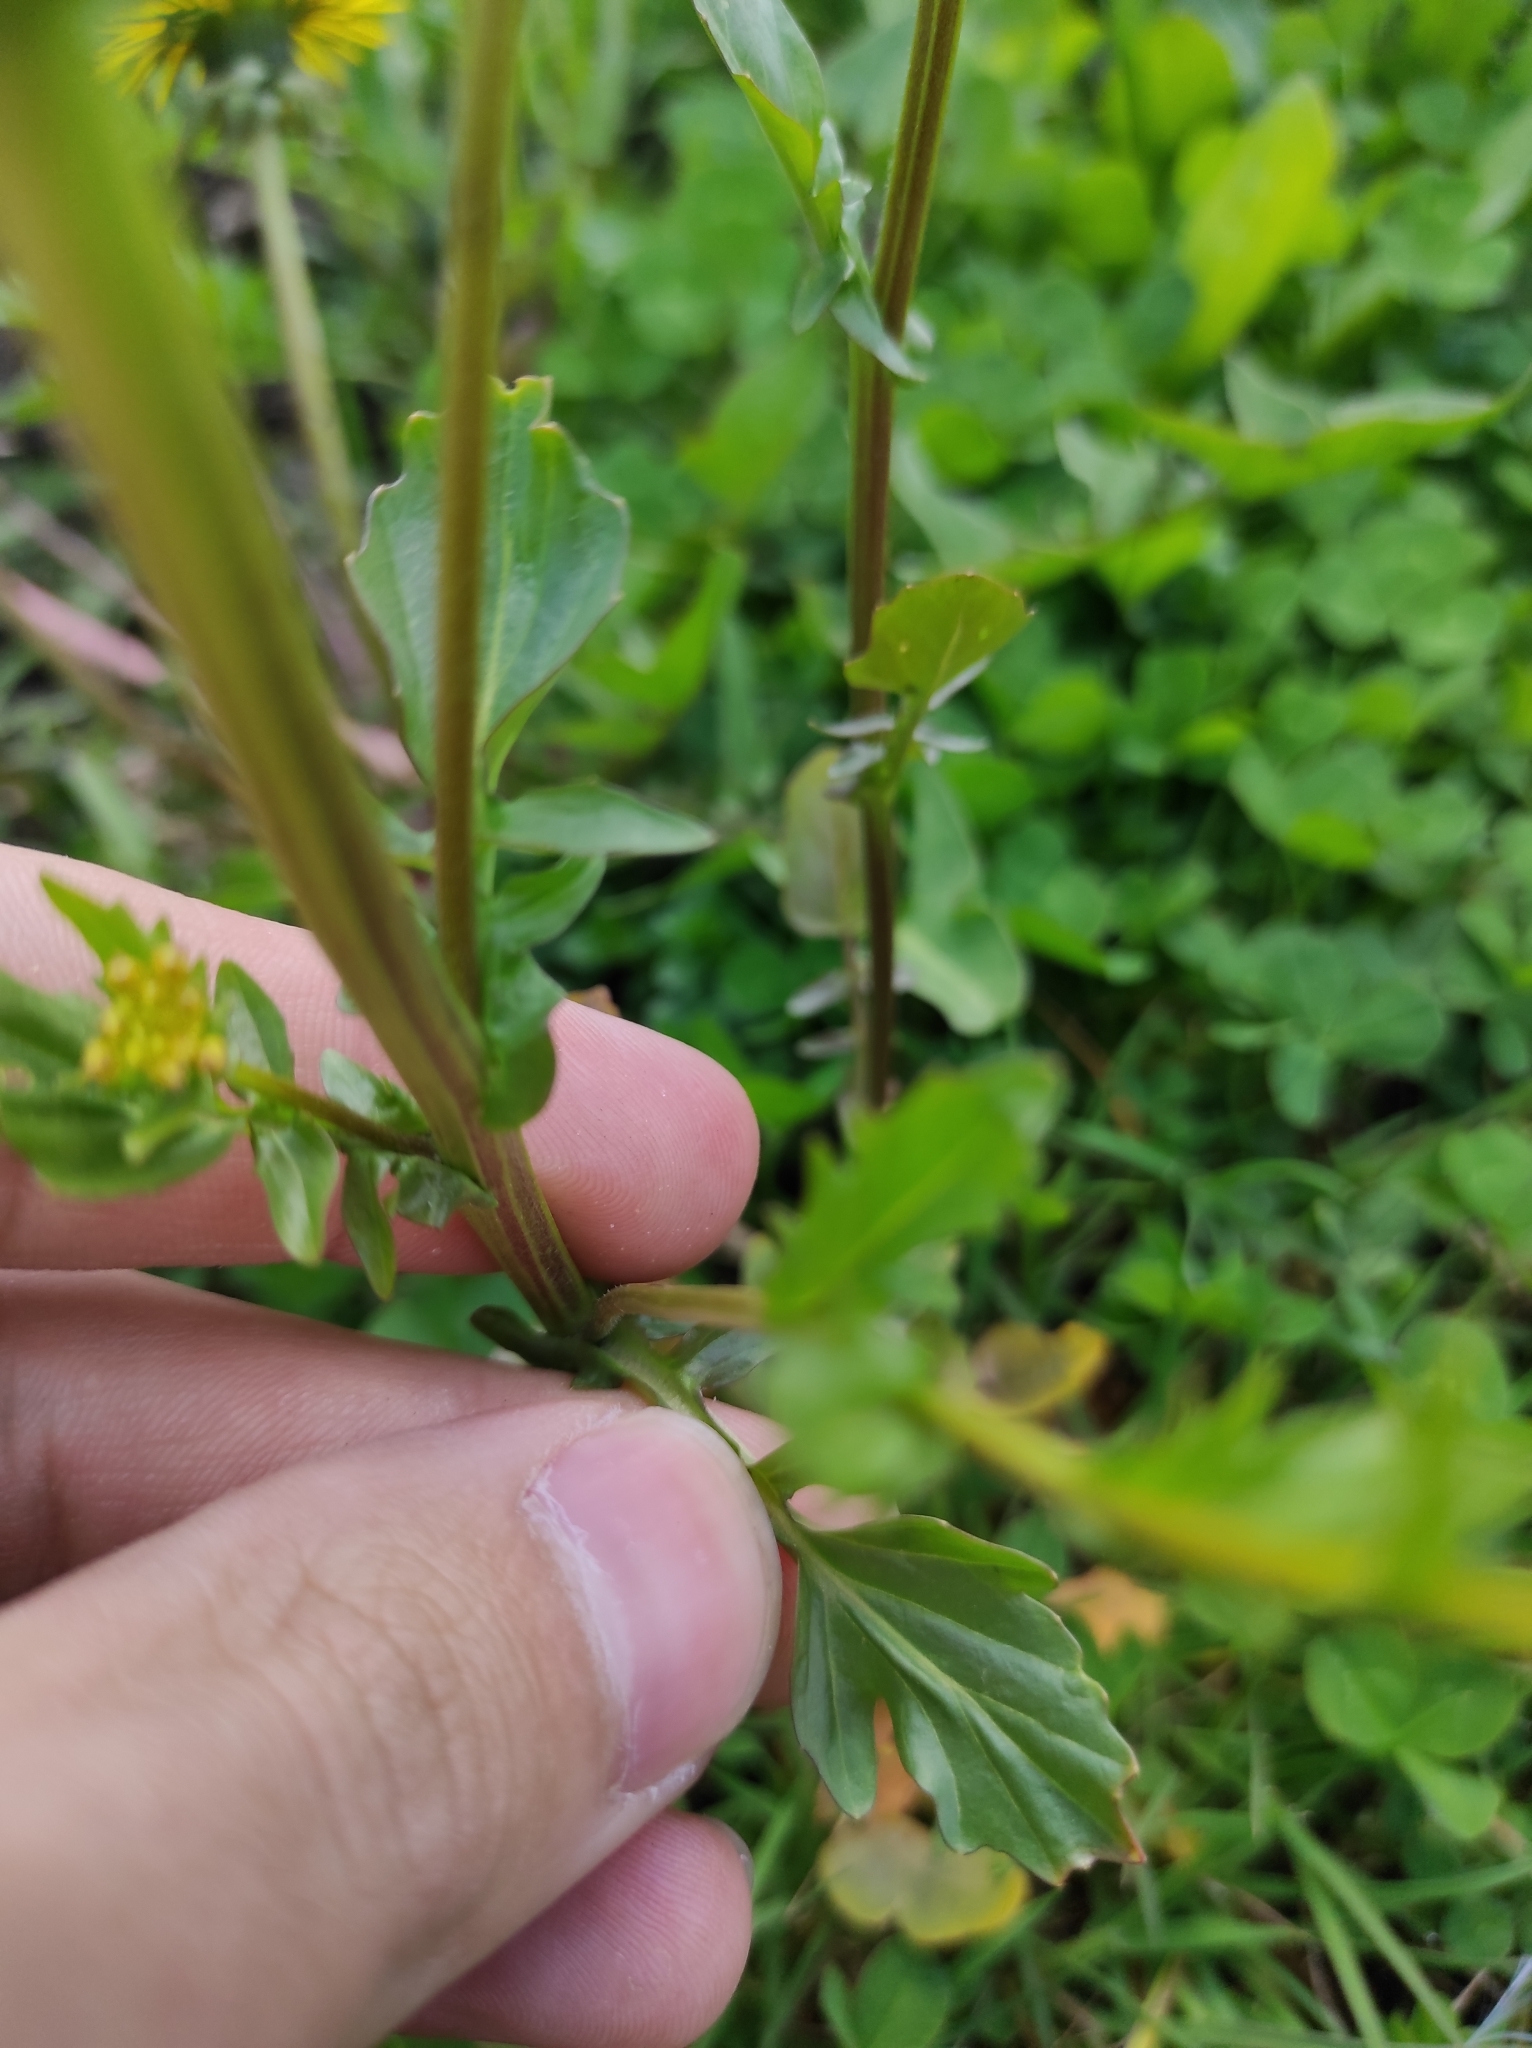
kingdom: Plantae
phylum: Tracheophyta
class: Magnoliopsida
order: Brassicales
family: Brassicaceae
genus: Barbarea
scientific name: Barbarea vulgaris
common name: Cressy-greens
